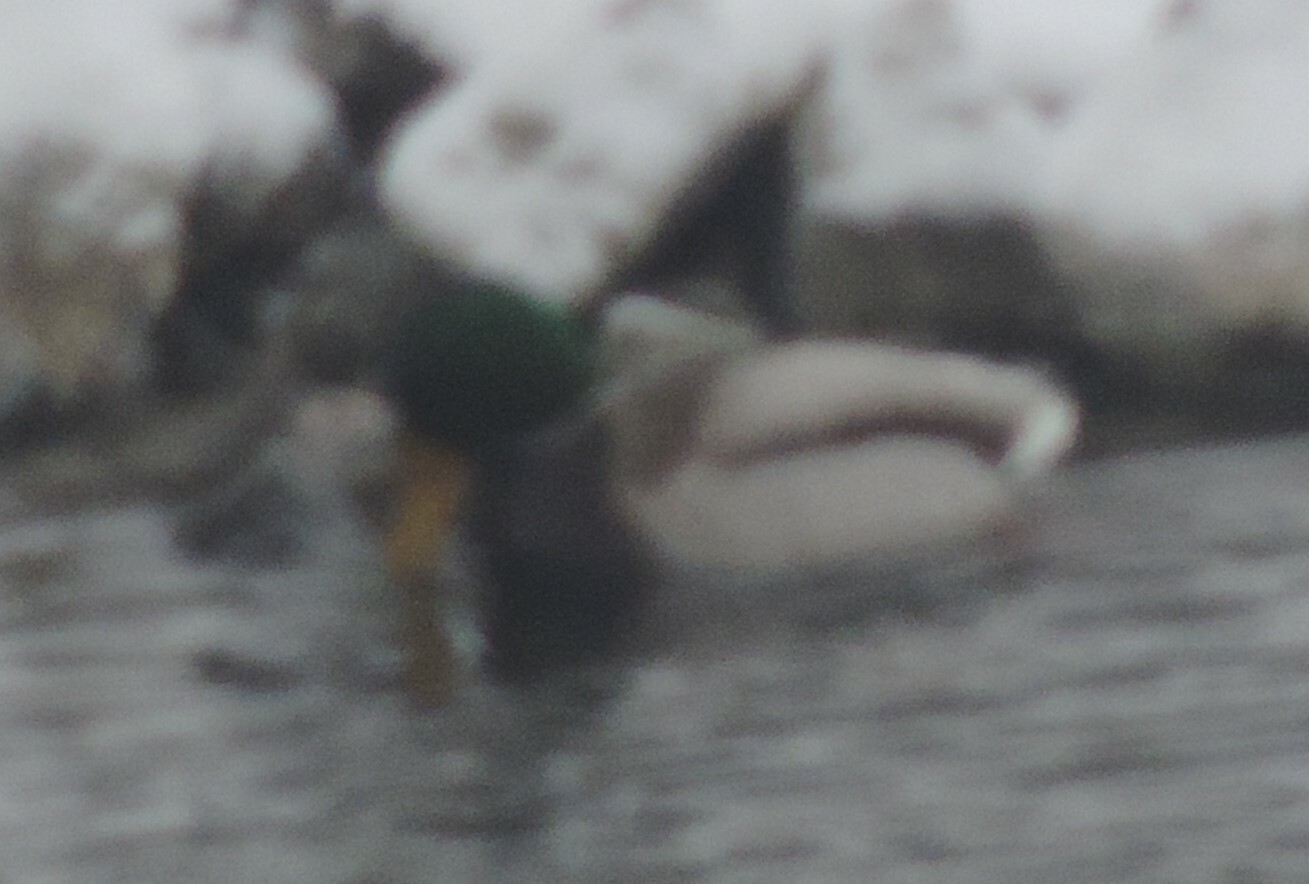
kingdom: Animalia
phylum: Chordata
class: Aves
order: Anseriformes
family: Anatidae
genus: Anas
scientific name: Anas platyrhynchos
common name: Mallard
